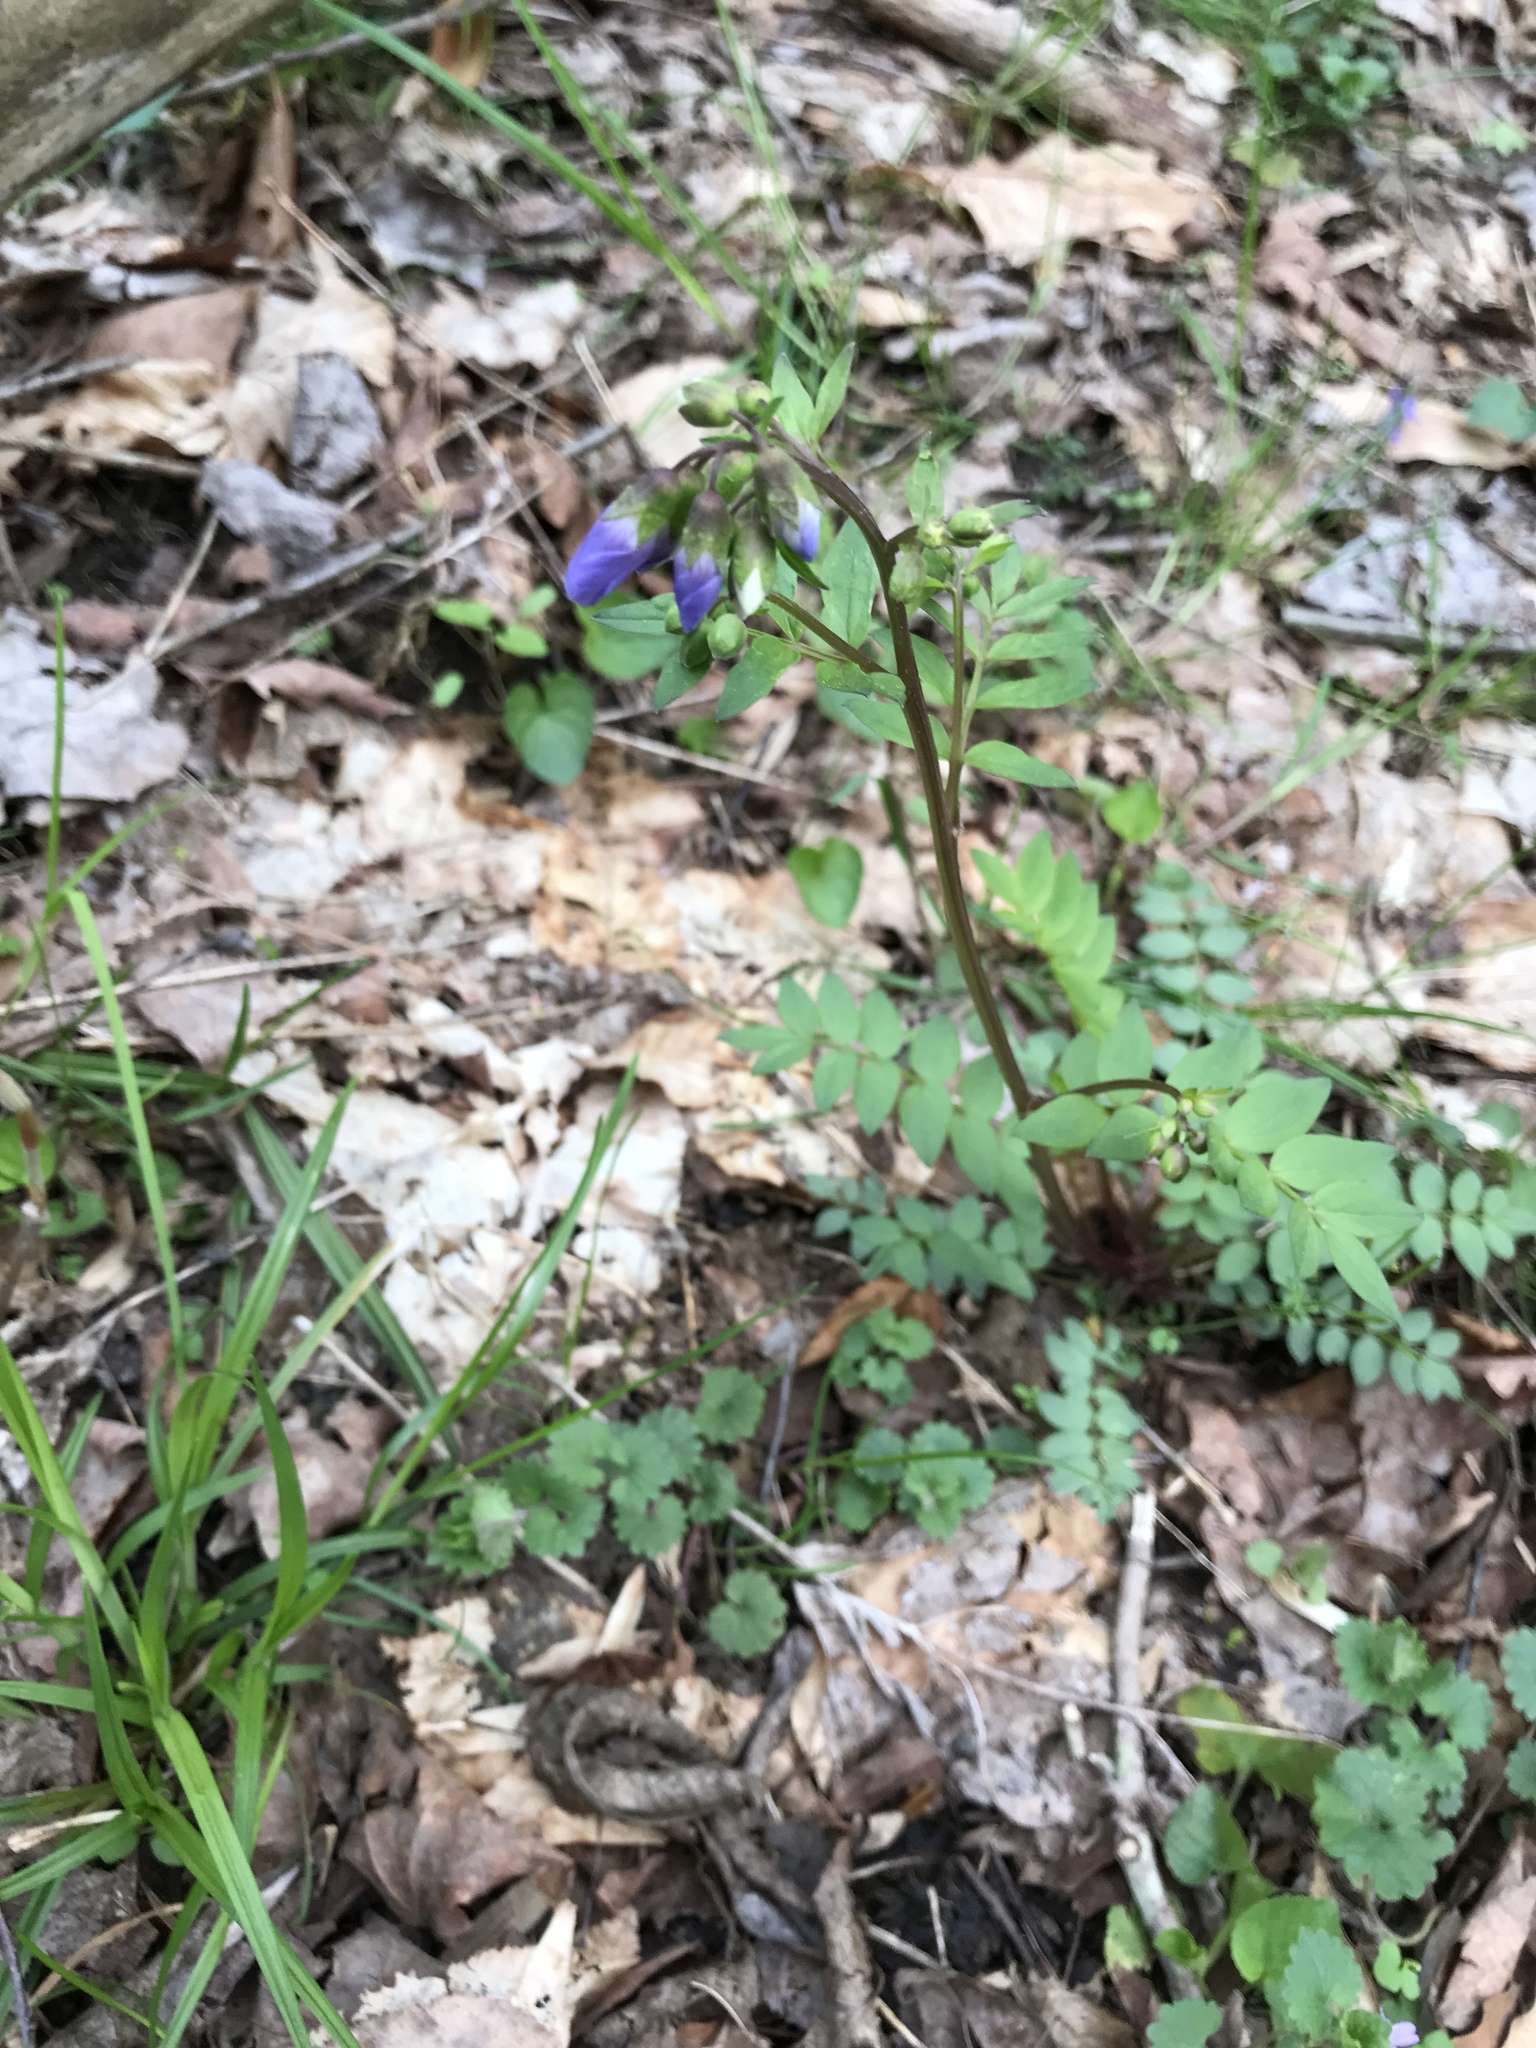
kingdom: Plantae
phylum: Tracheophyta
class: Magnoliopsida
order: Ericales
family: Polemoniaceae
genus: Polemonium
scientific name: Polemonium reptans
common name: Creeping jacob's-ladder
